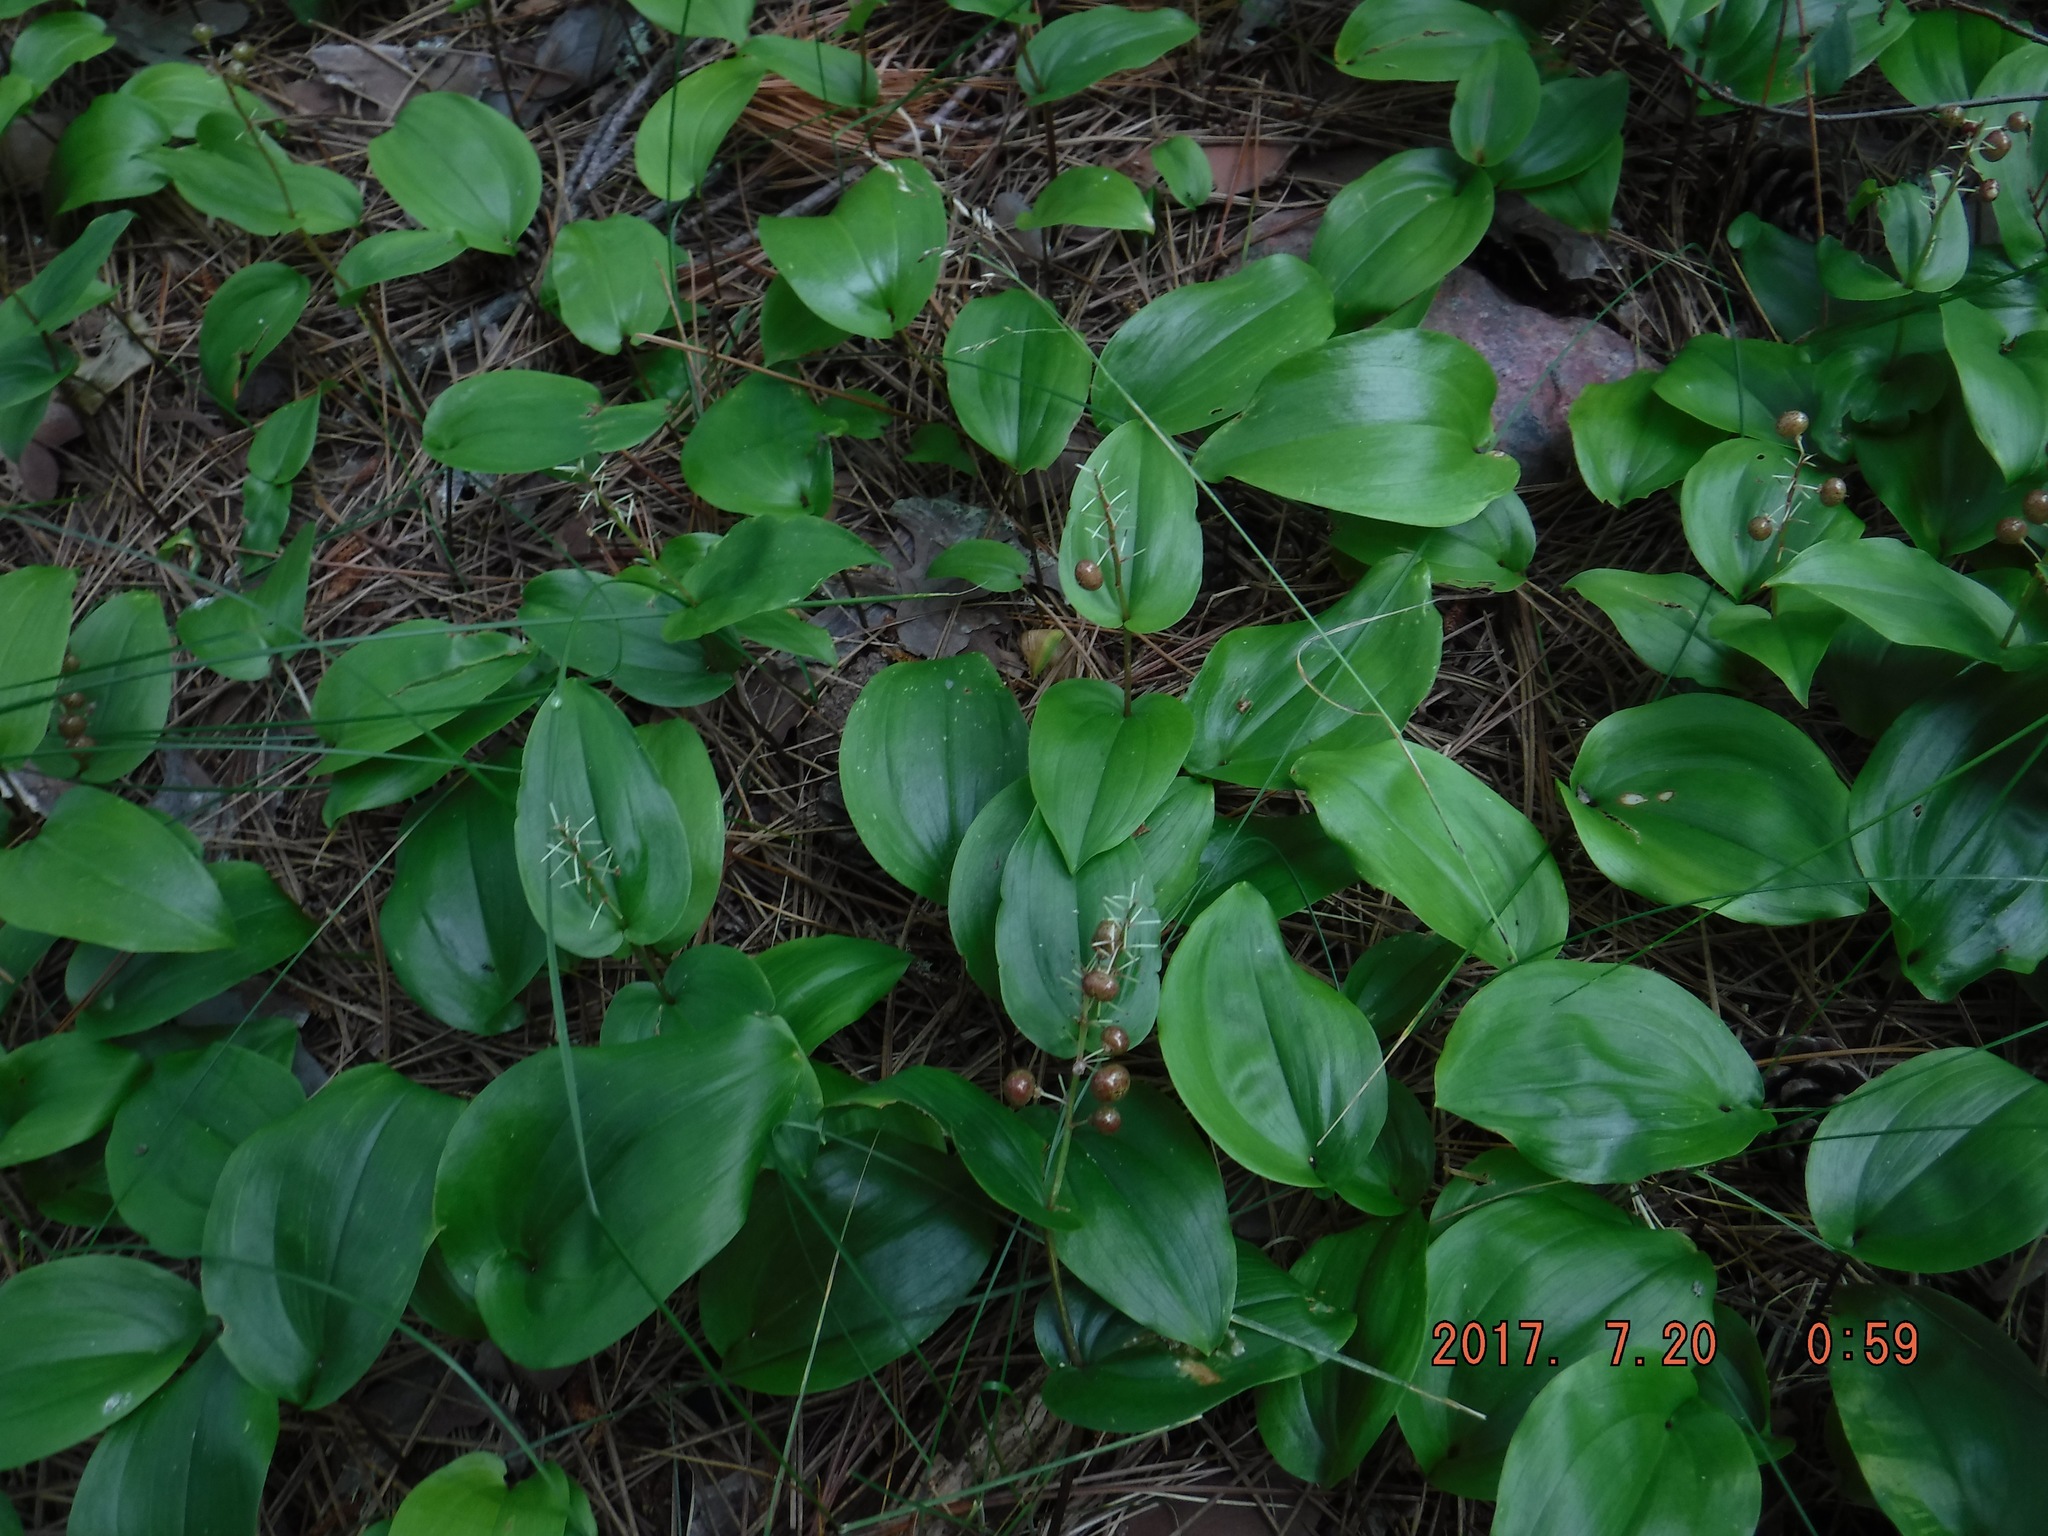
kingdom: Plantae
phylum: Tracheophyta
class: Liliopsida
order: Asparagales
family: Asparagaceae
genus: Maianthemum
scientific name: Maianthemum canadense
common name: False lily-of-the-valley
